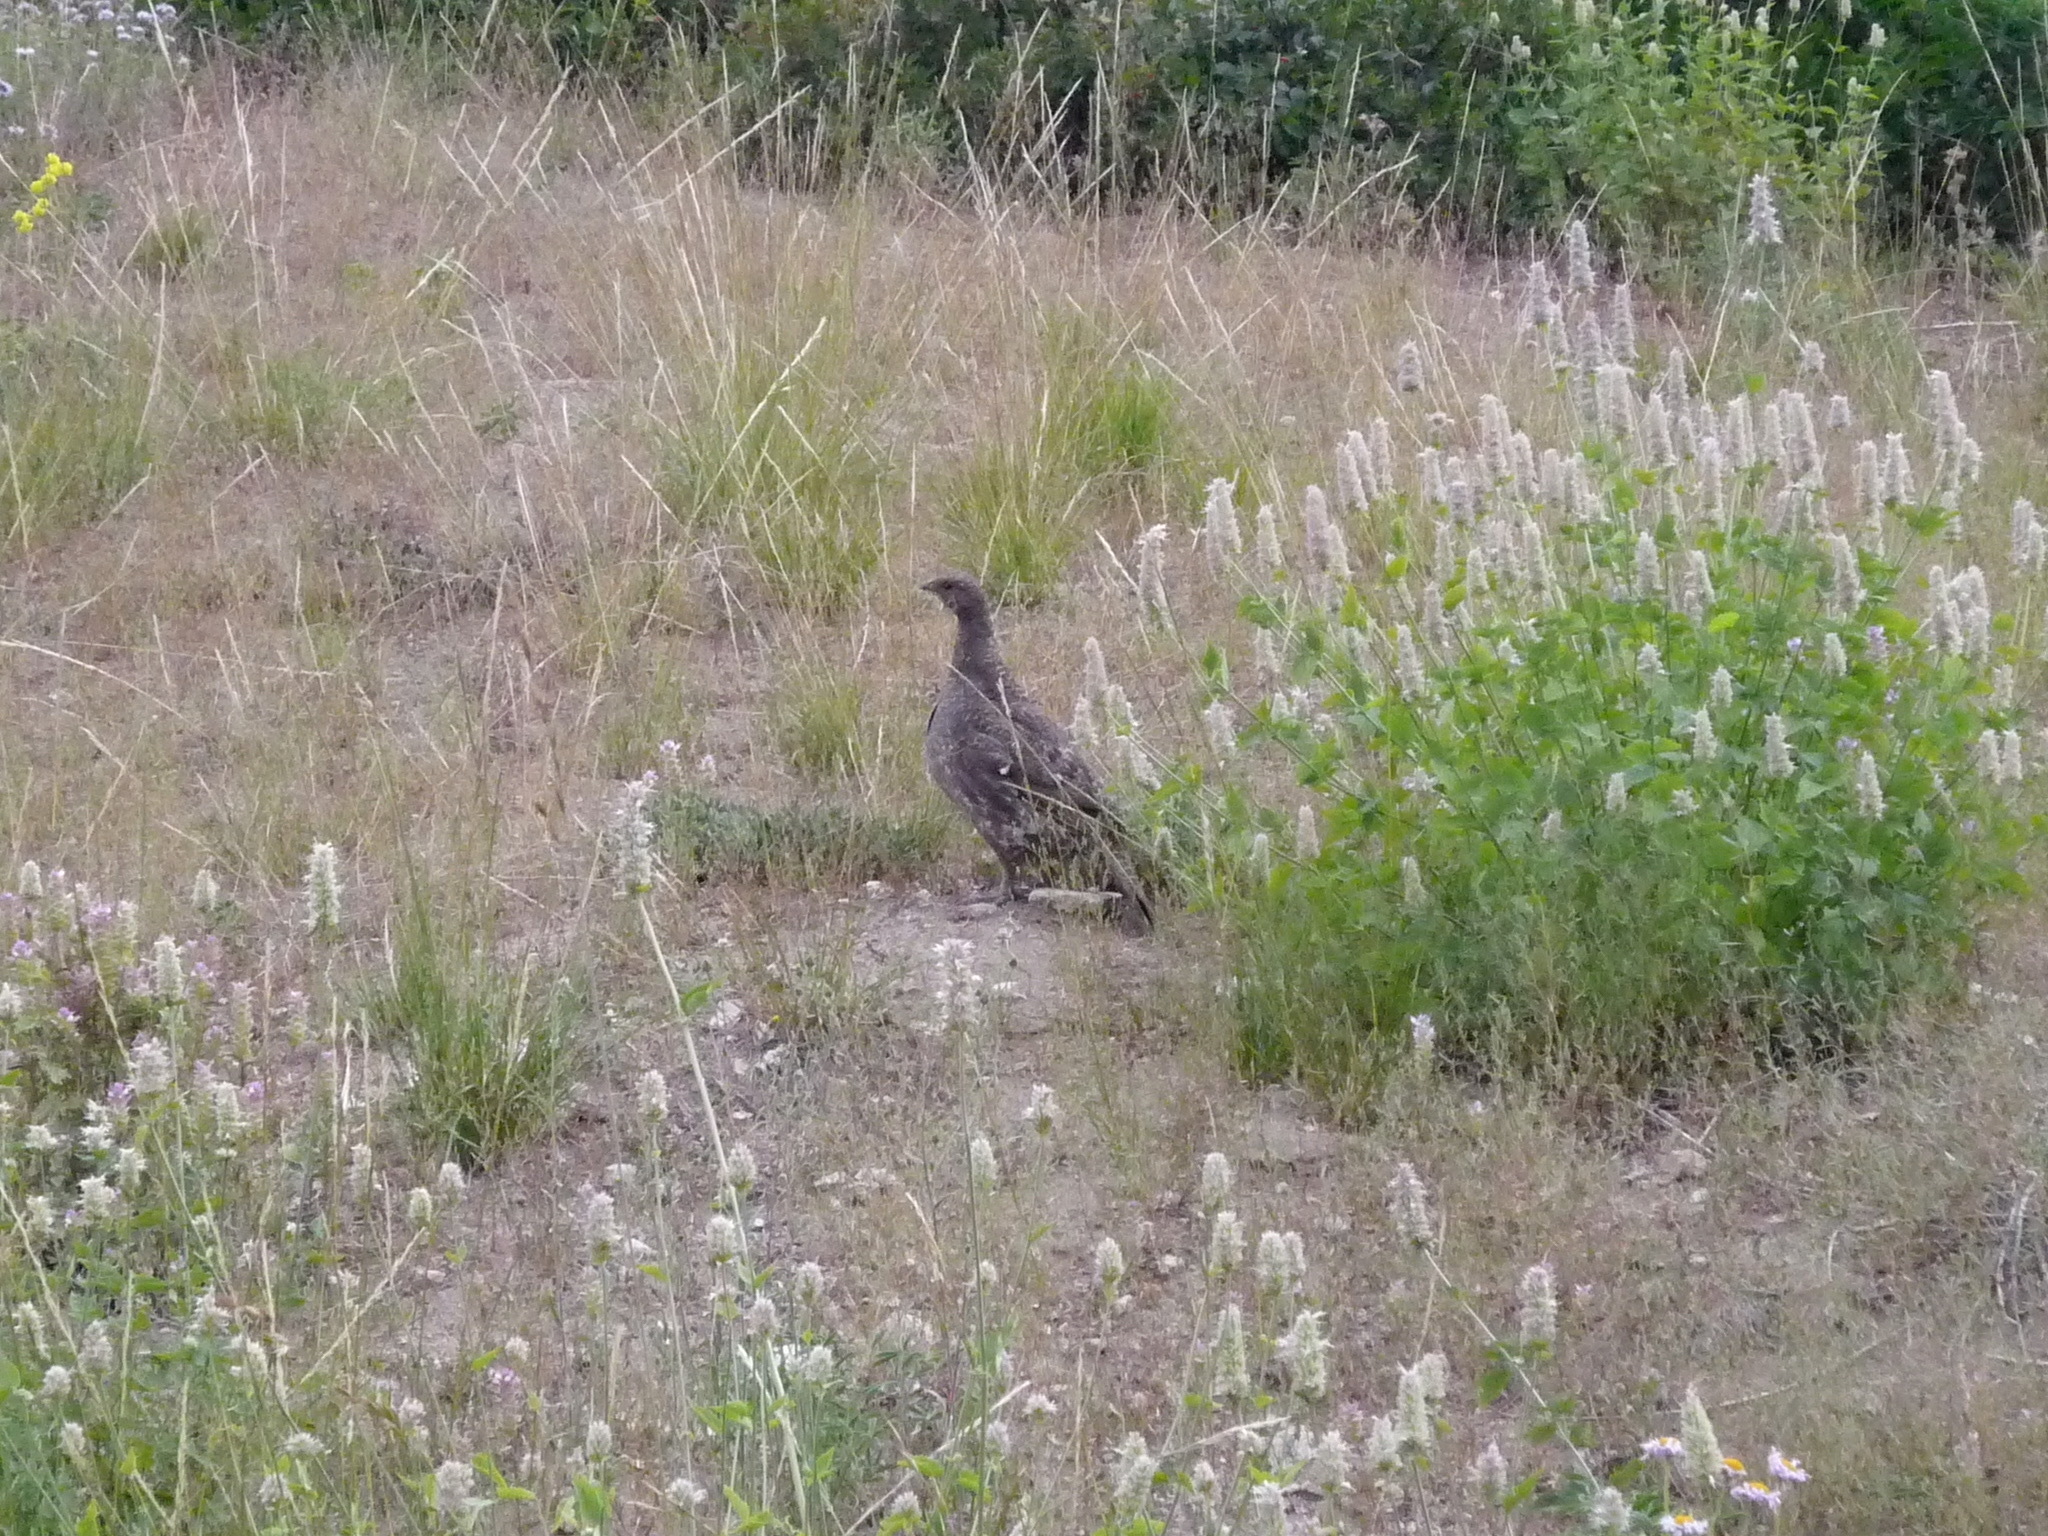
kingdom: Animalia
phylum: Chordata
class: Aves
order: Galliformes
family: Phasianidae
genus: Dendragapus
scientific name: Dendragapus fuliginosus
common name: Sooty grouse
